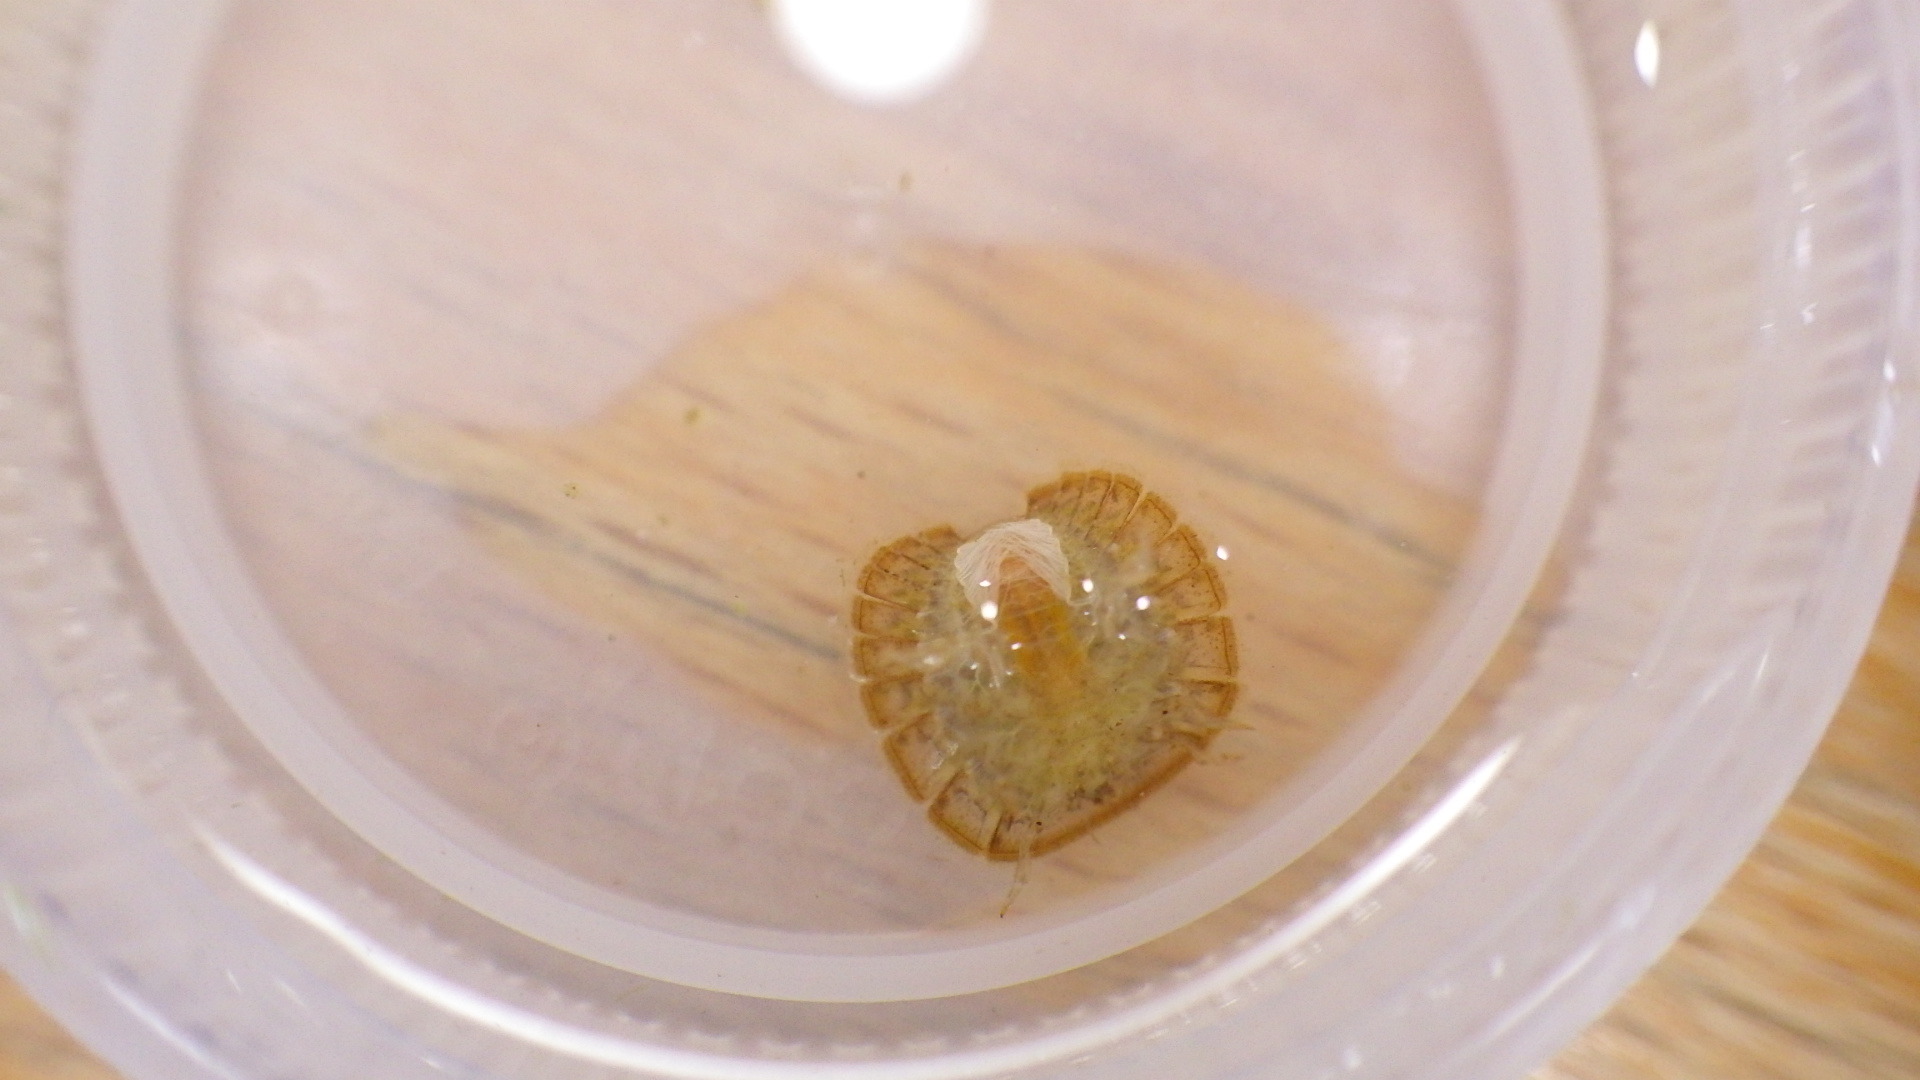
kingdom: Animalia
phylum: Arthropoda
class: Insecta
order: Coleoptera
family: Psephenidae
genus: Psephenus
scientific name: Psephenus herricki
